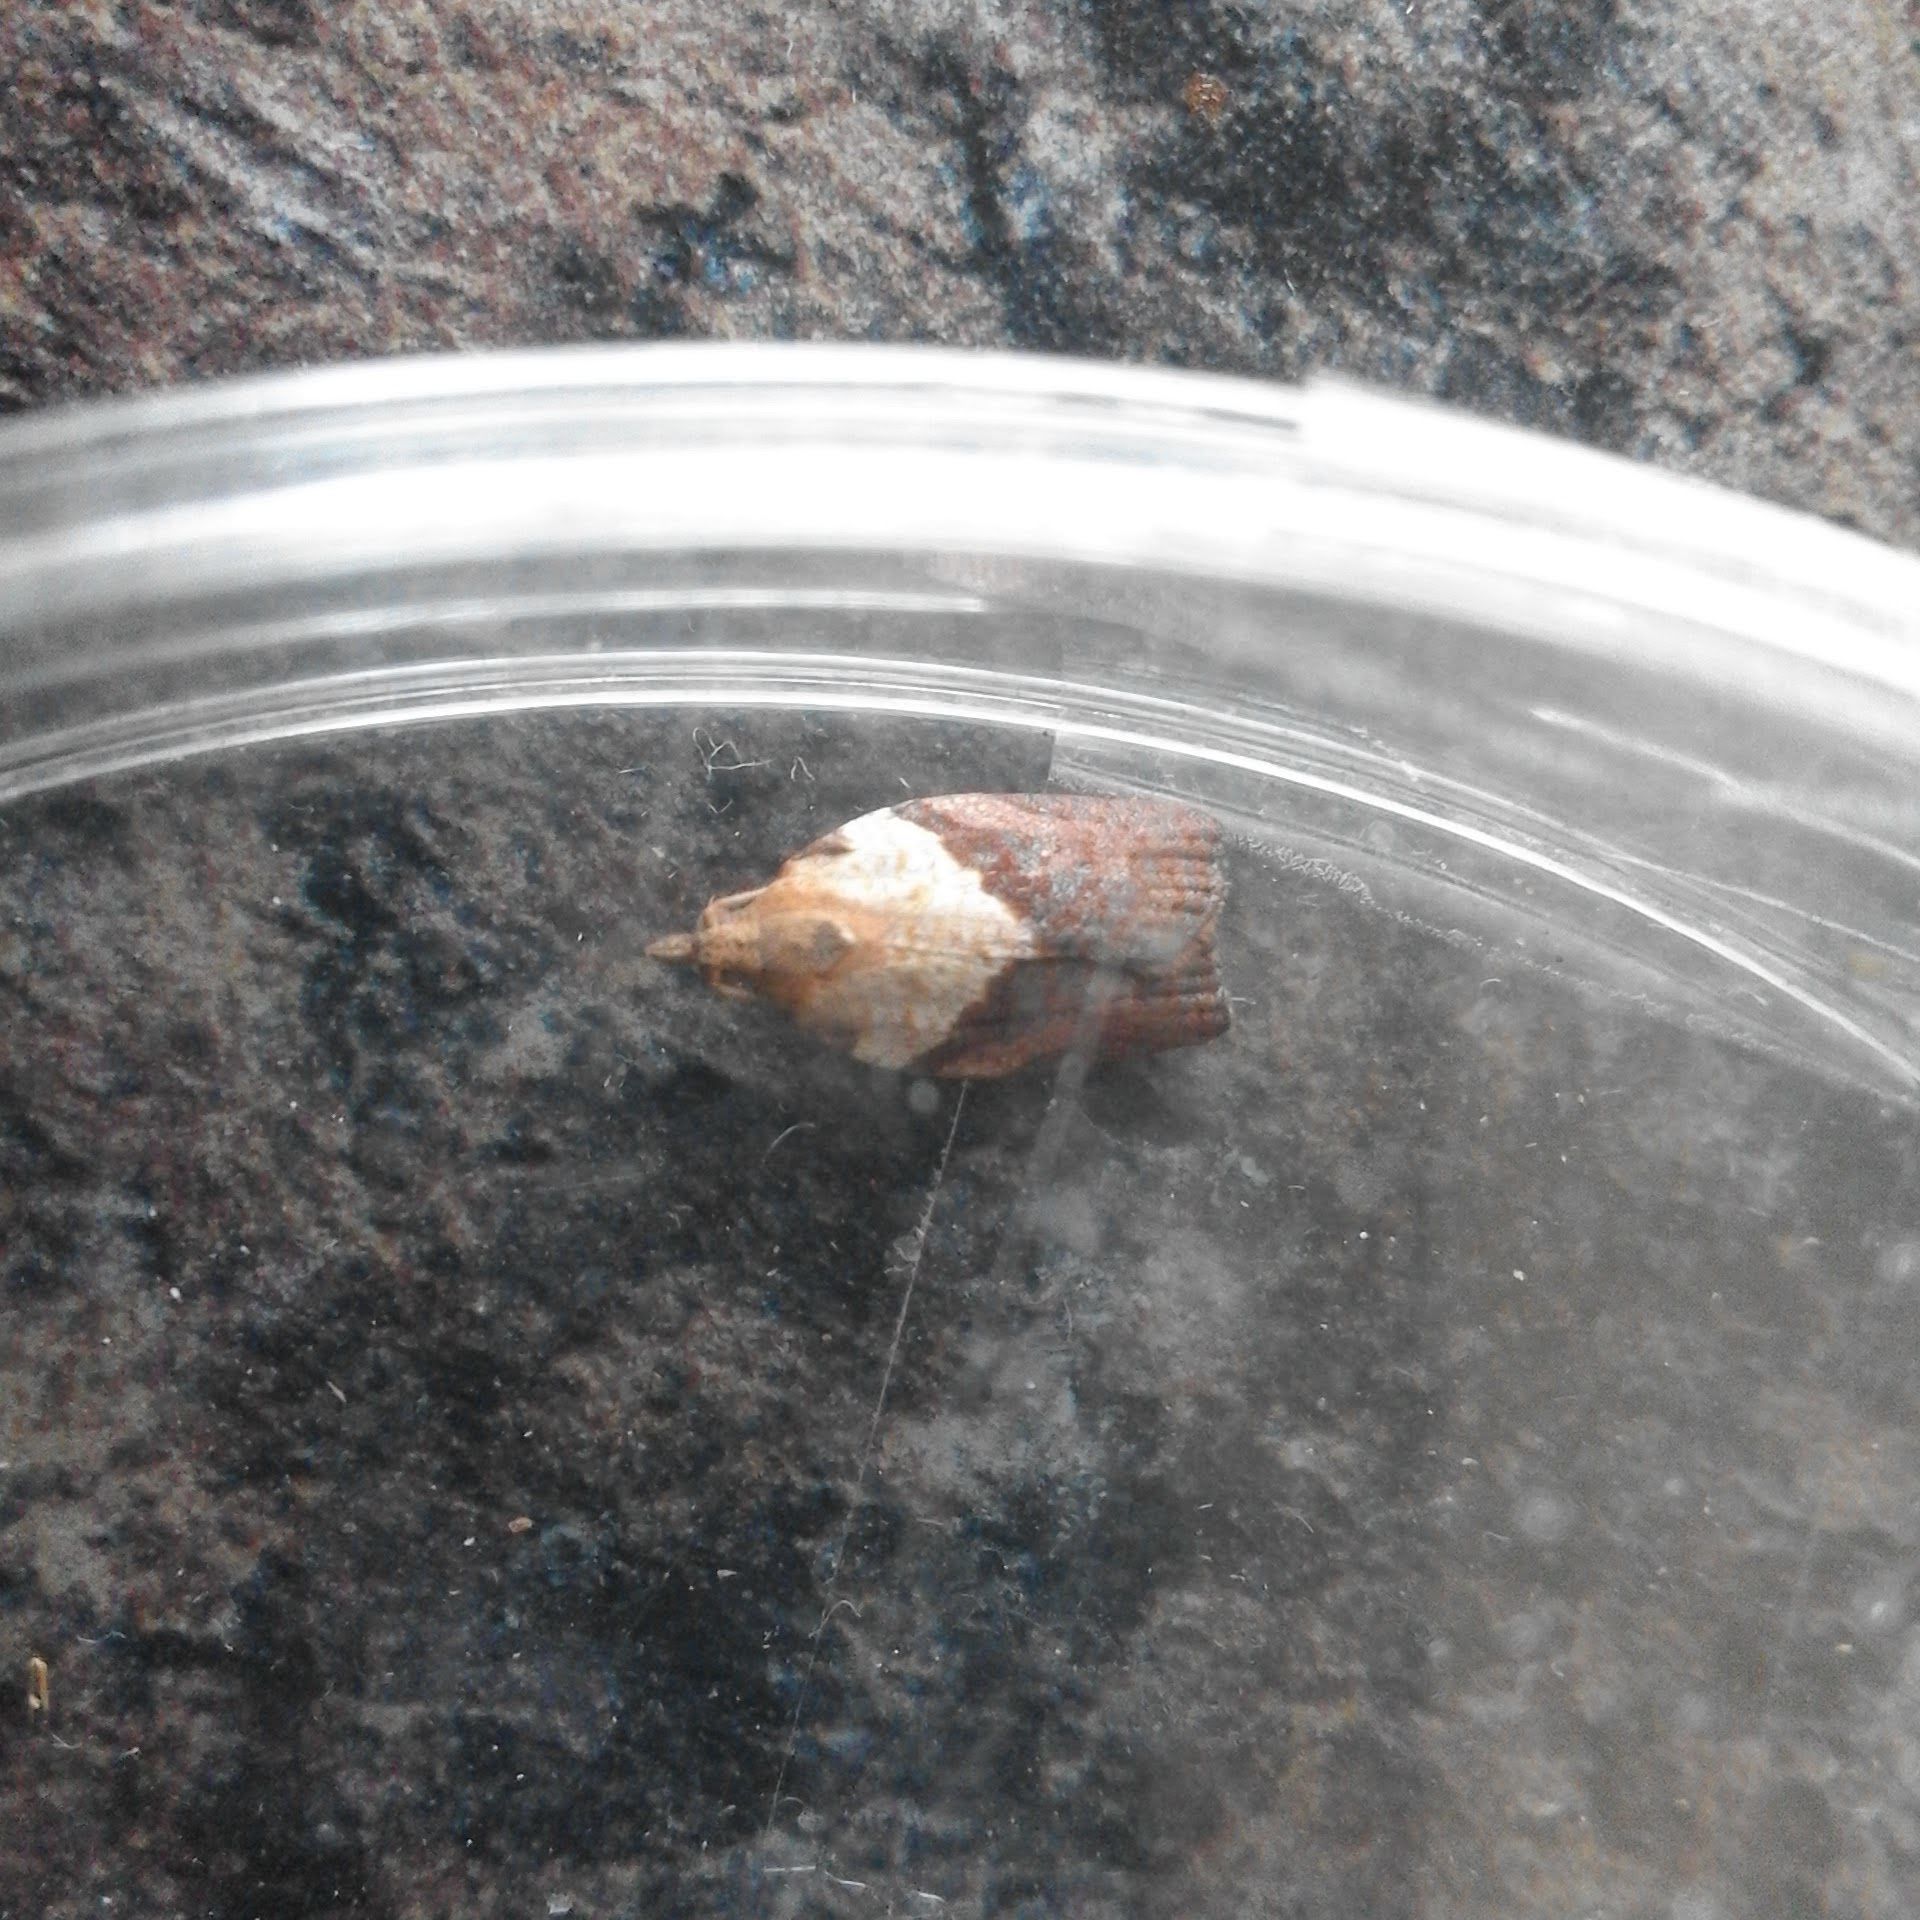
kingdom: Animalia
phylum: Arthropoda
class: Insecta
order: Lepidoptera
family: Tortricidae
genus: Epiphyas
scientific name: Epiphyas postvittana
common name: Light brown apple moth
